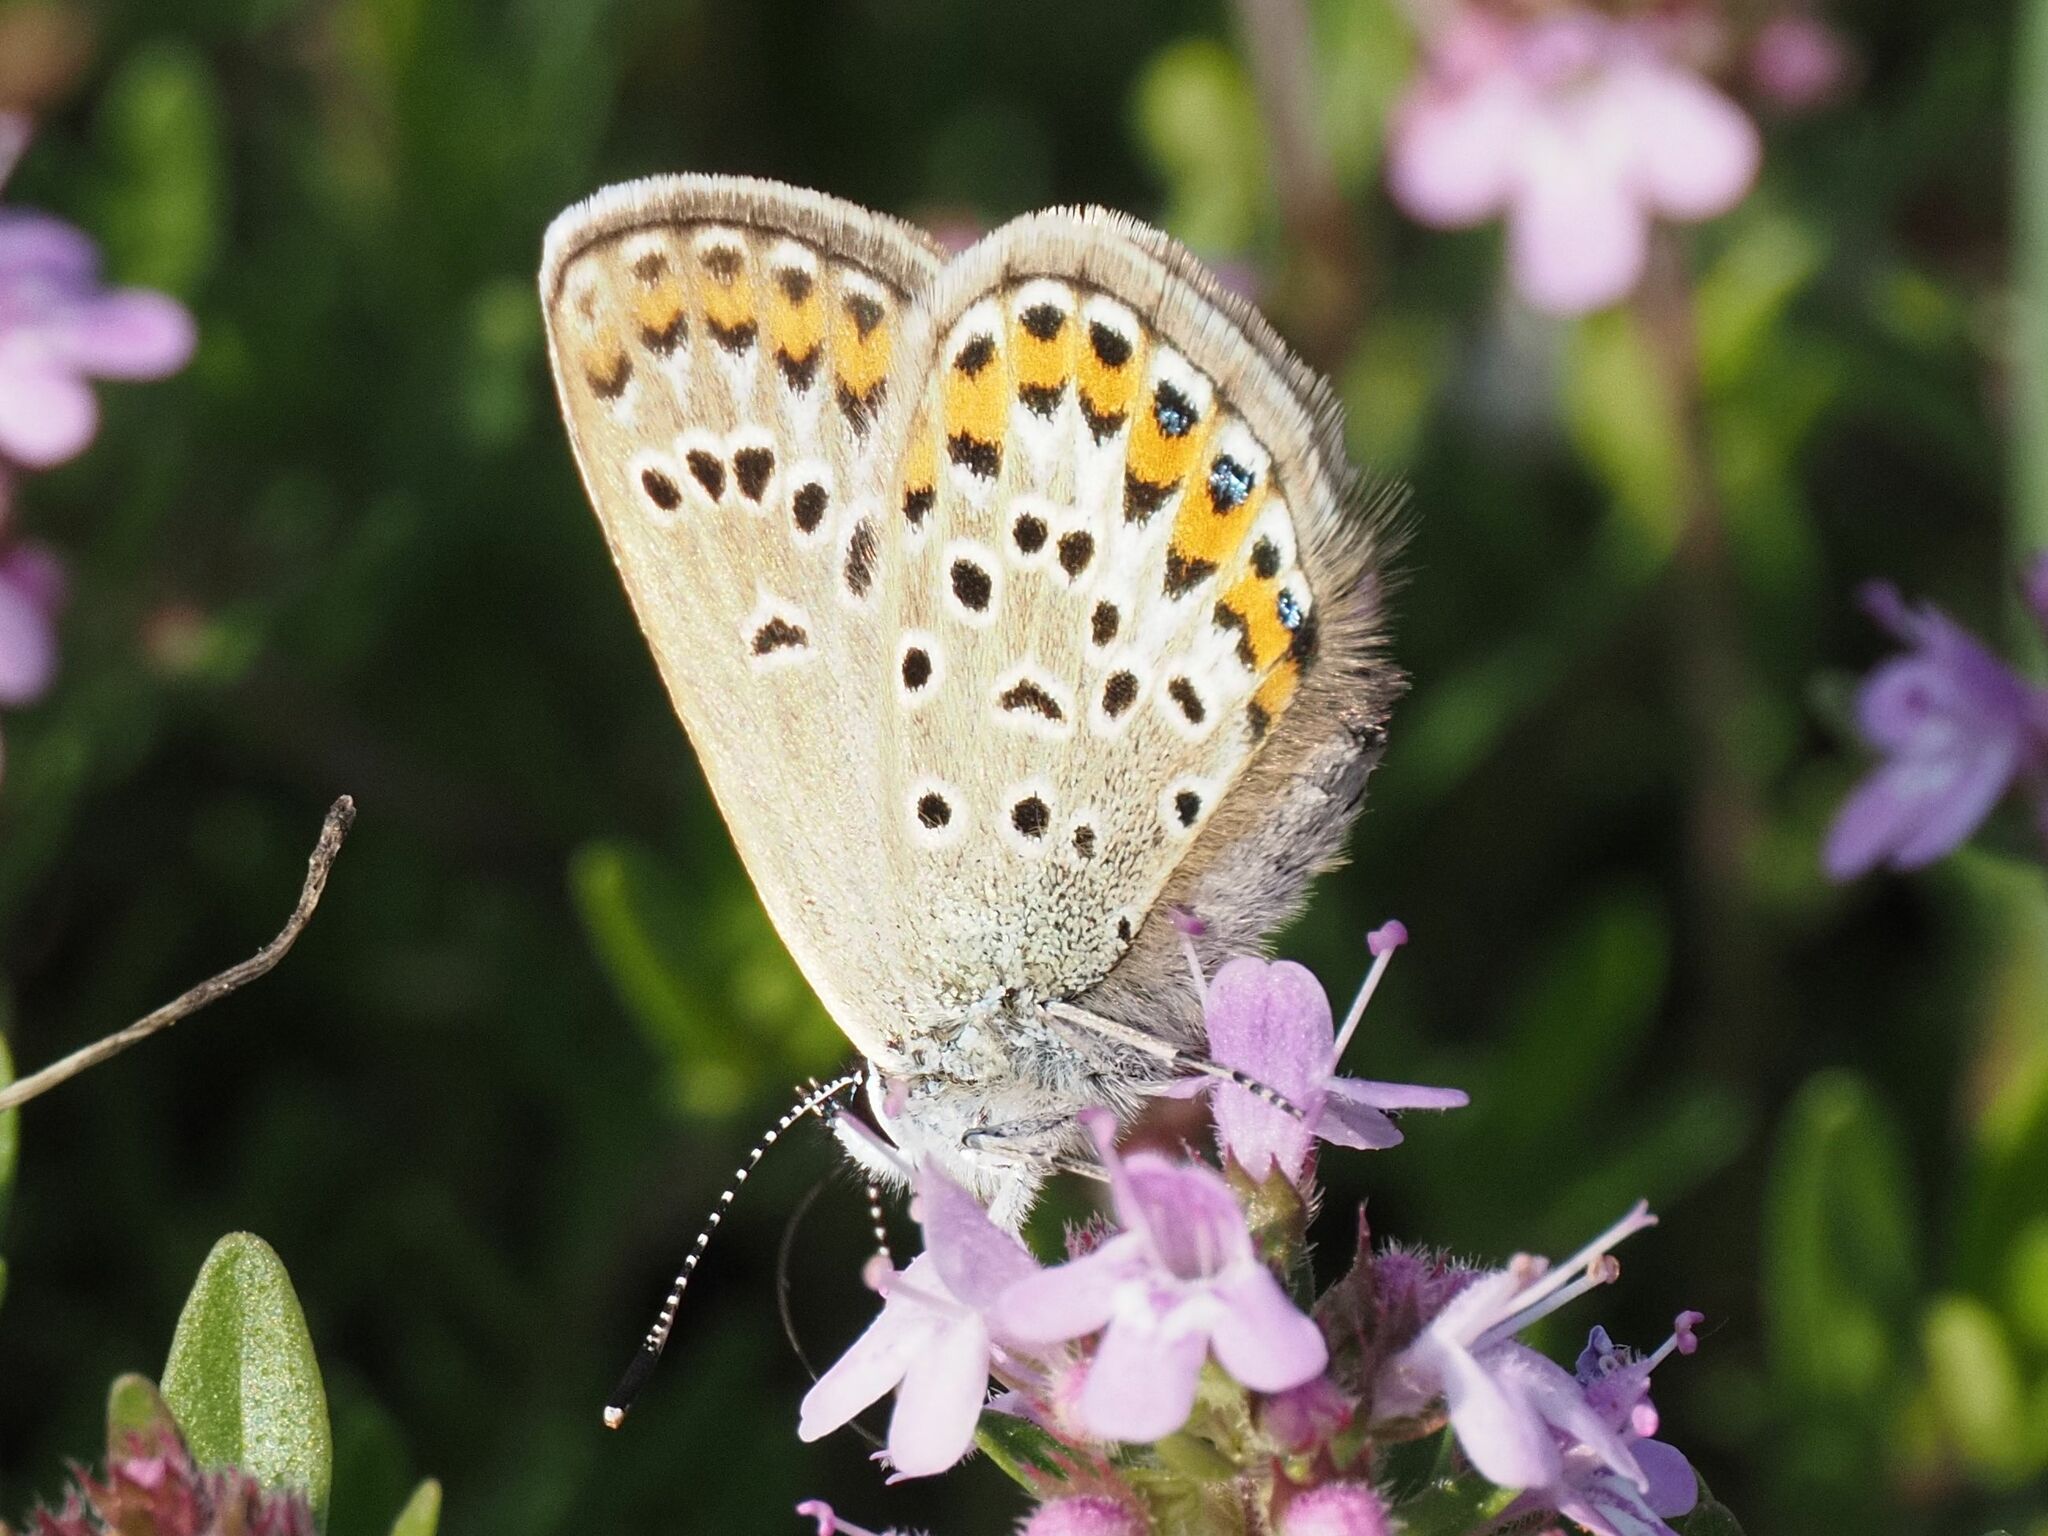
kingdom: Animalia
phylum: Arthropoda
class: Insecta
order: Lepidoptera
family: Lycaenidae
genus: Plebejus
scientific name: Plebejus argus
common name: Silver-studded blue
